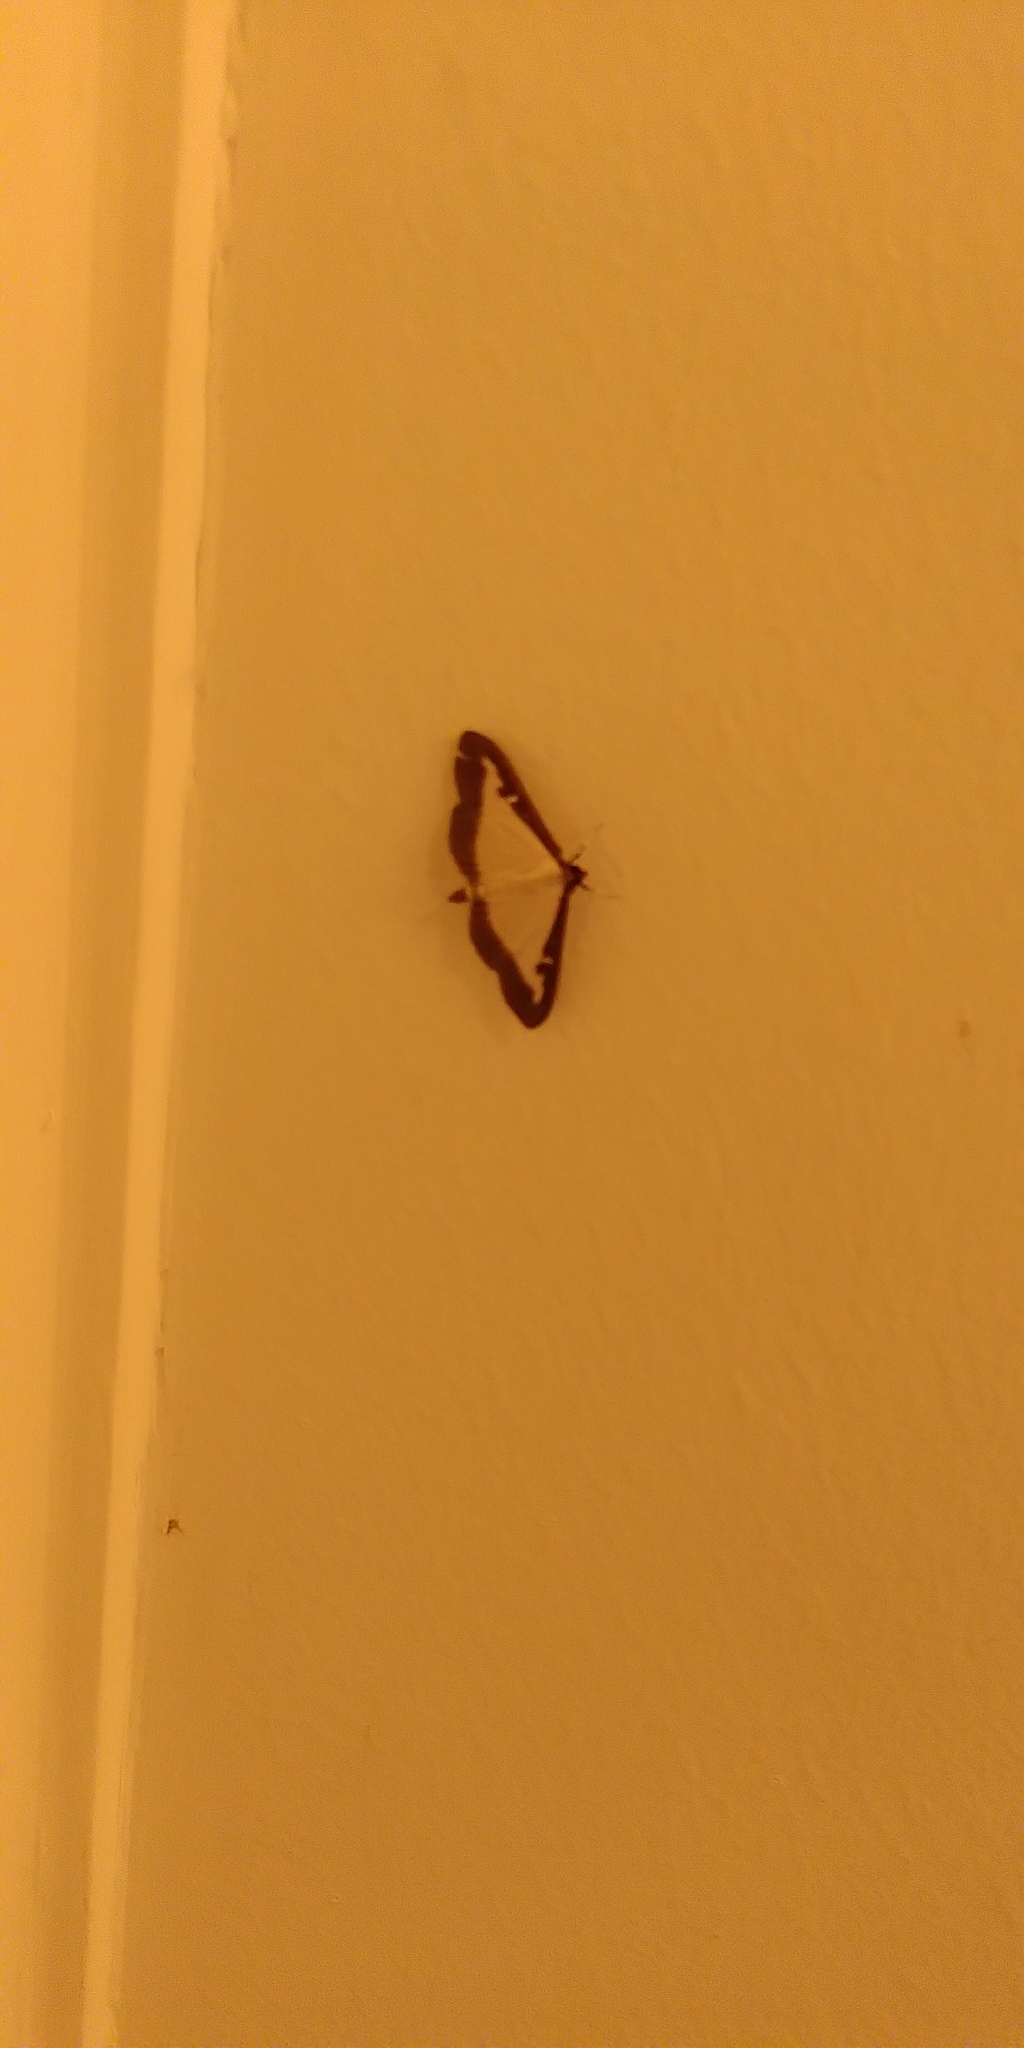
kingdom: Animalia
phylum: Arthropoda
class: Insecta
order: Lepidoptera
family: Crambidae
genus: Cydalima
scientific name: Cydalima perspectalis
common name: Box tree moth
